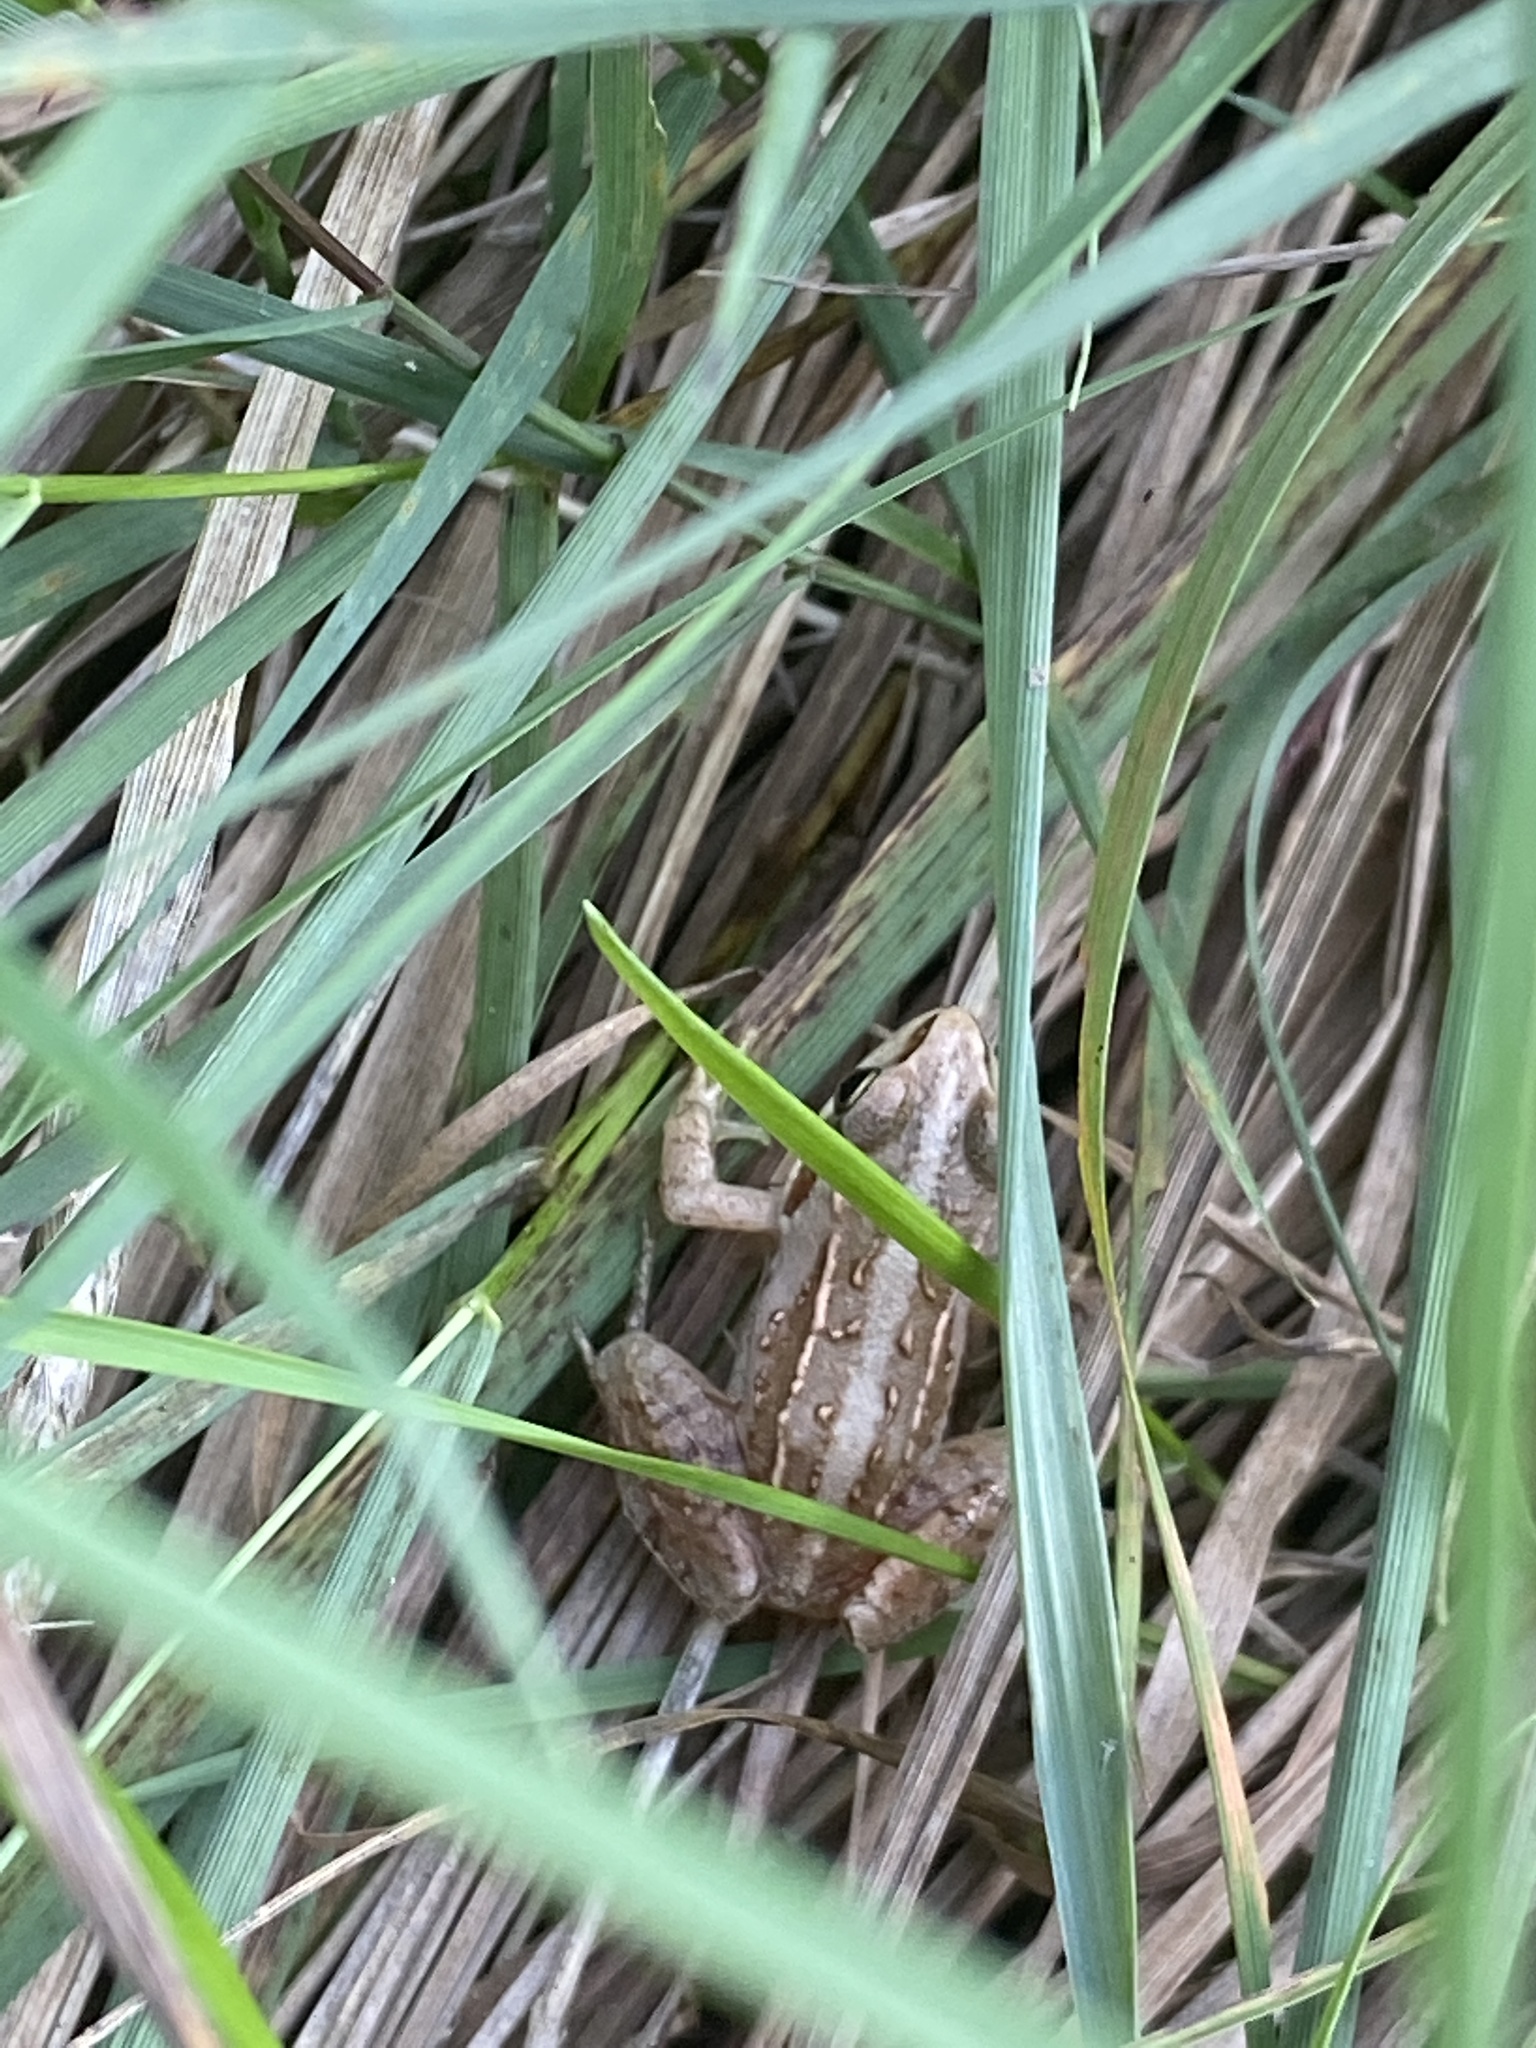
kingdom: Animalia
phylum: Chordata
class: Amphibia
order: Anura
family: Ranidae
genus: Rana
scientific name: Rana arvalis
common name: Moor frog
